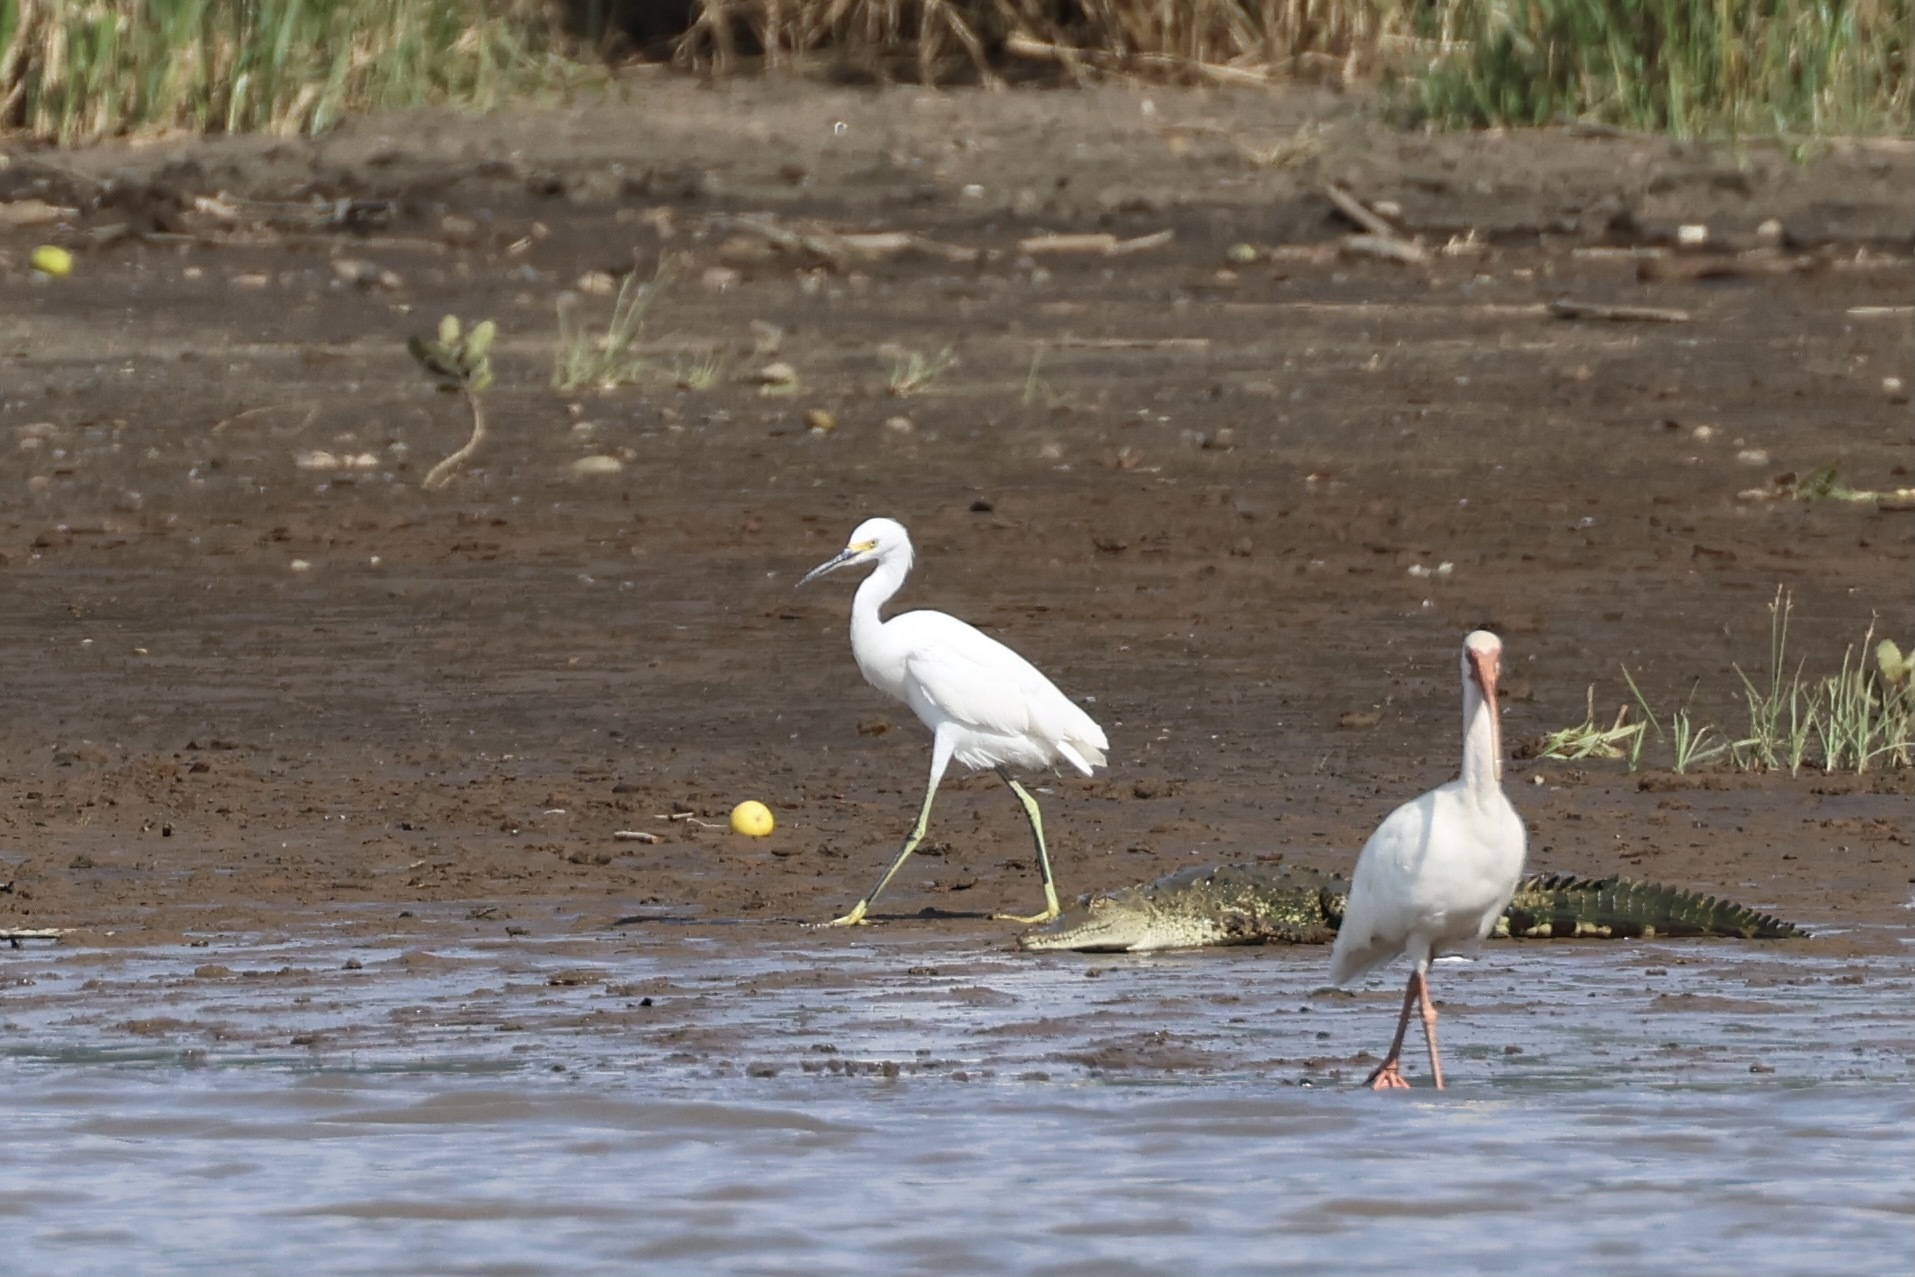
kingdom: Animalia
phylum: Chordata
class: Aves
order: Pelecaniformes
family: Ardeidae
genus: Egretta
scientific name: Egretta thula
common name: Snowy egret
